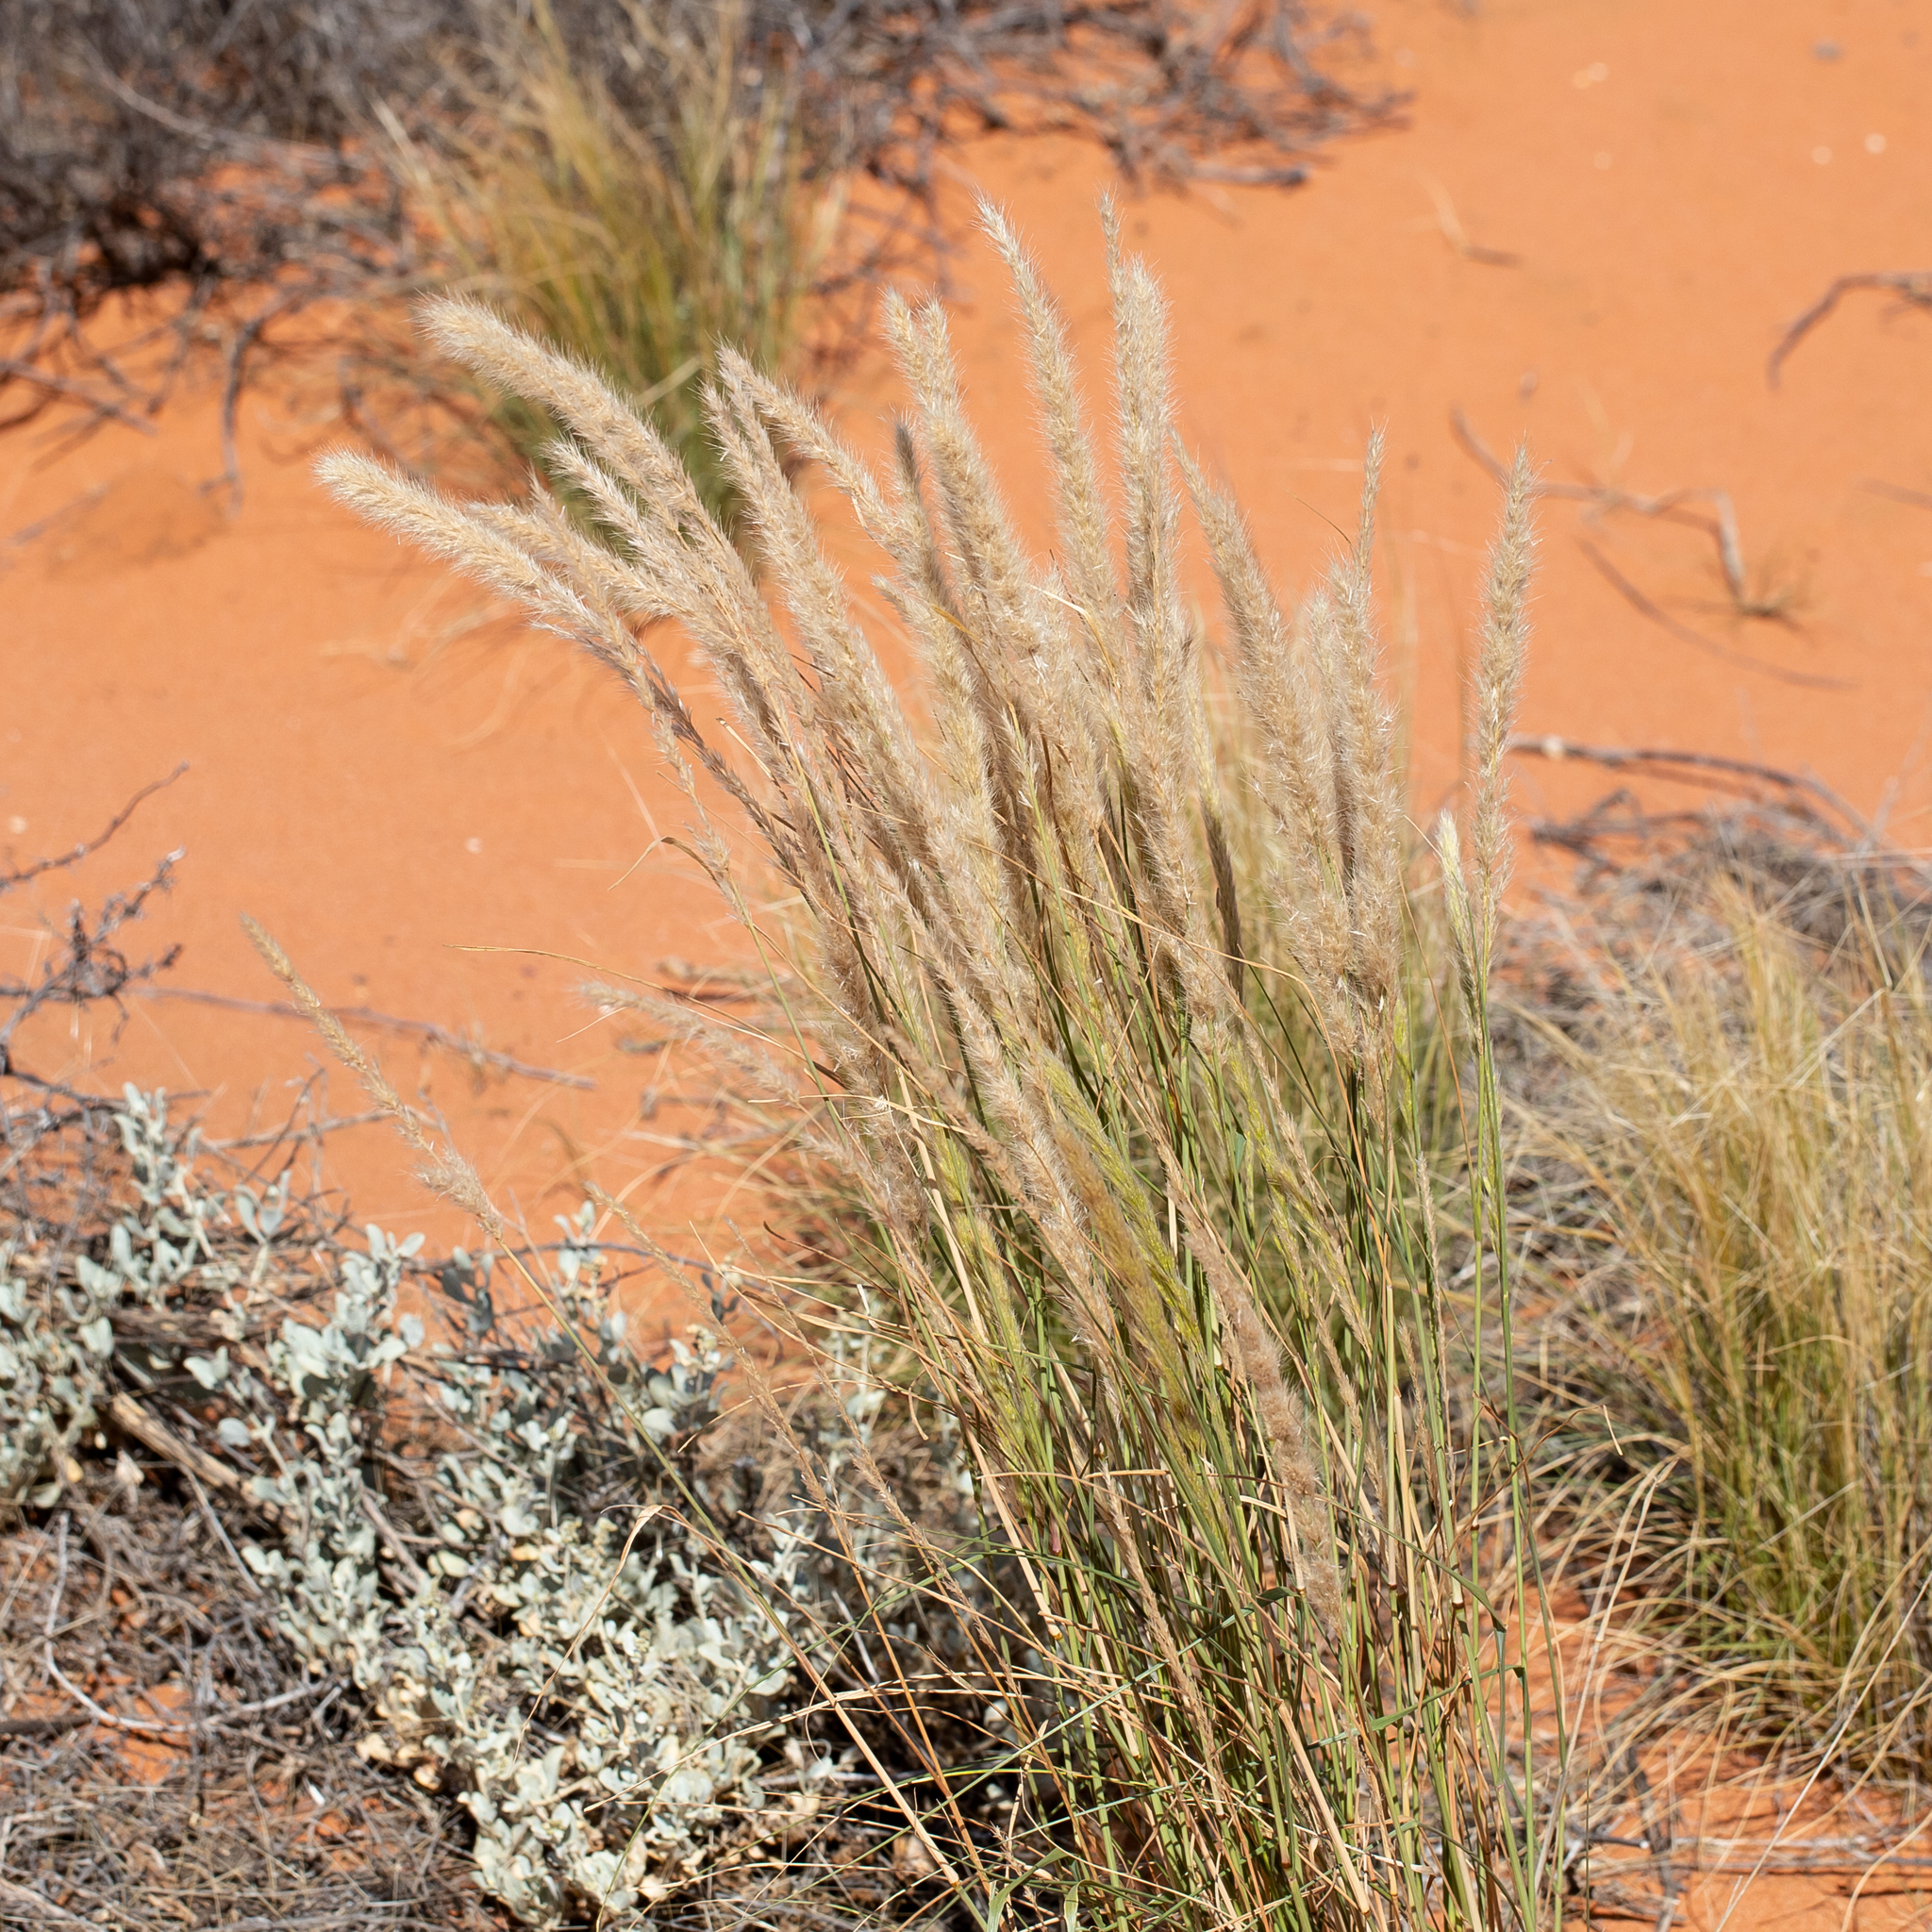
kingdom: Plantae
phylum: Tracheophyta
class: Liliopsida
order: Poales
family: Poaceae
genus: Triraphis
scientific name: Triraphis mollis
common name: Purple needlegrass
